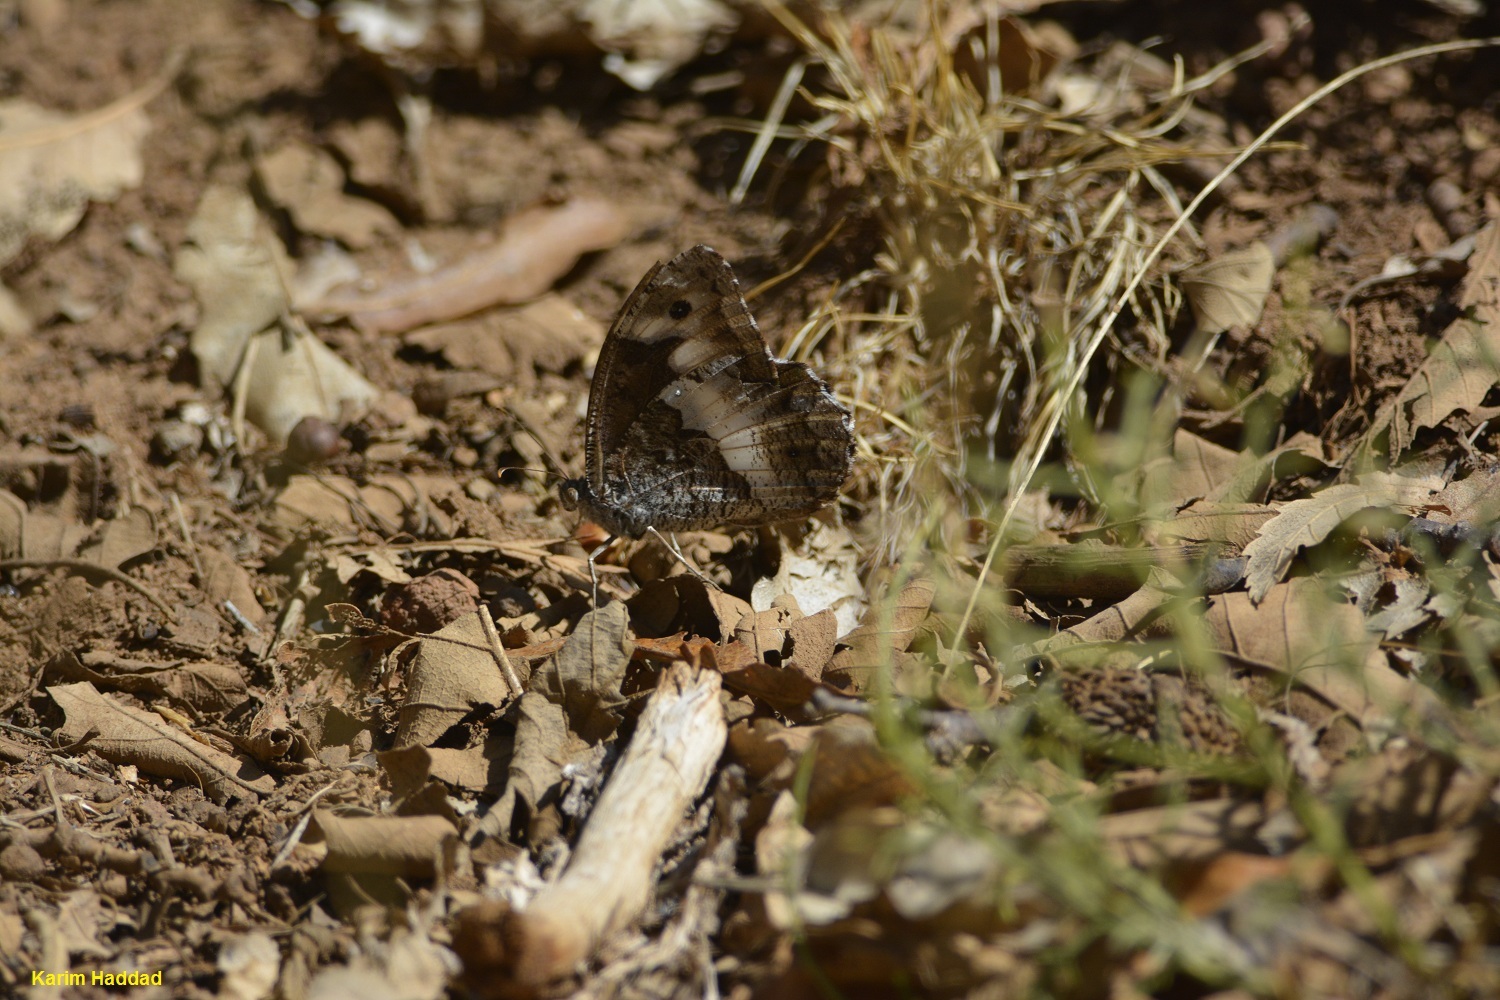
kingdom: Animalia
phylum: Arthropoda
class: Insecta
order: Lepidoptera
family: Nymphalidae
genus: Hipparchia
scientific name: Hipparchia ellena
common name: Algerian grayling
